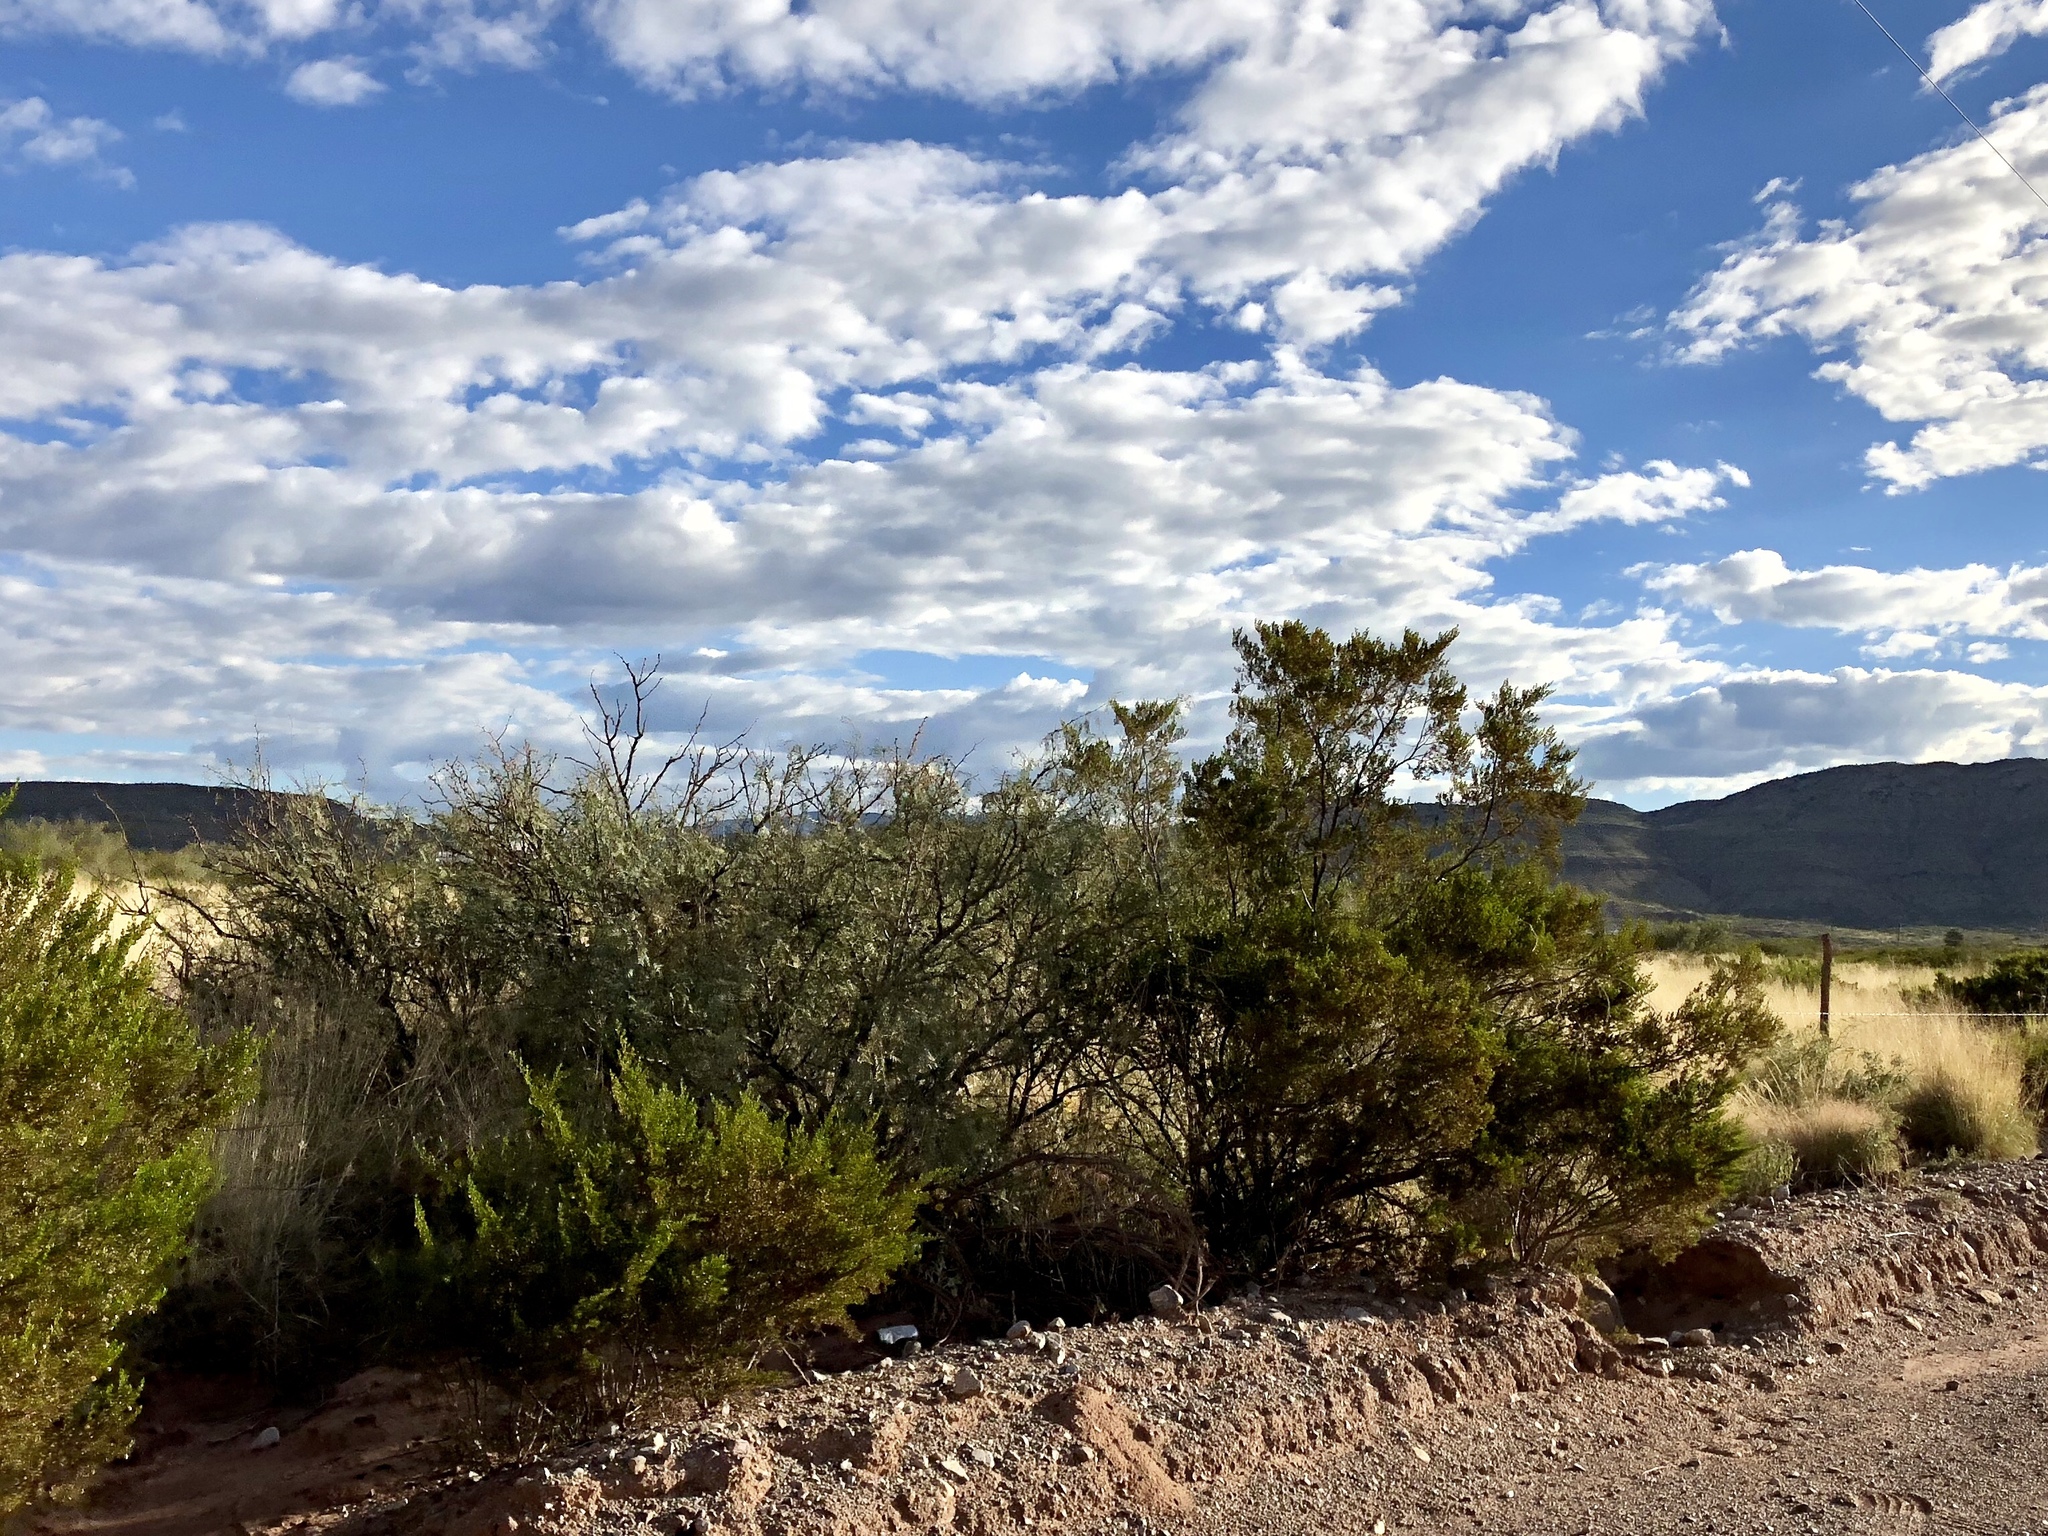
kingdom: Plantae
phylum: Tracheophyta
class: Magnoliopsida
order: Zygophyllales
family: Zygophyllaceae
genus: Larrea
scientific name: Larrea tridentata
